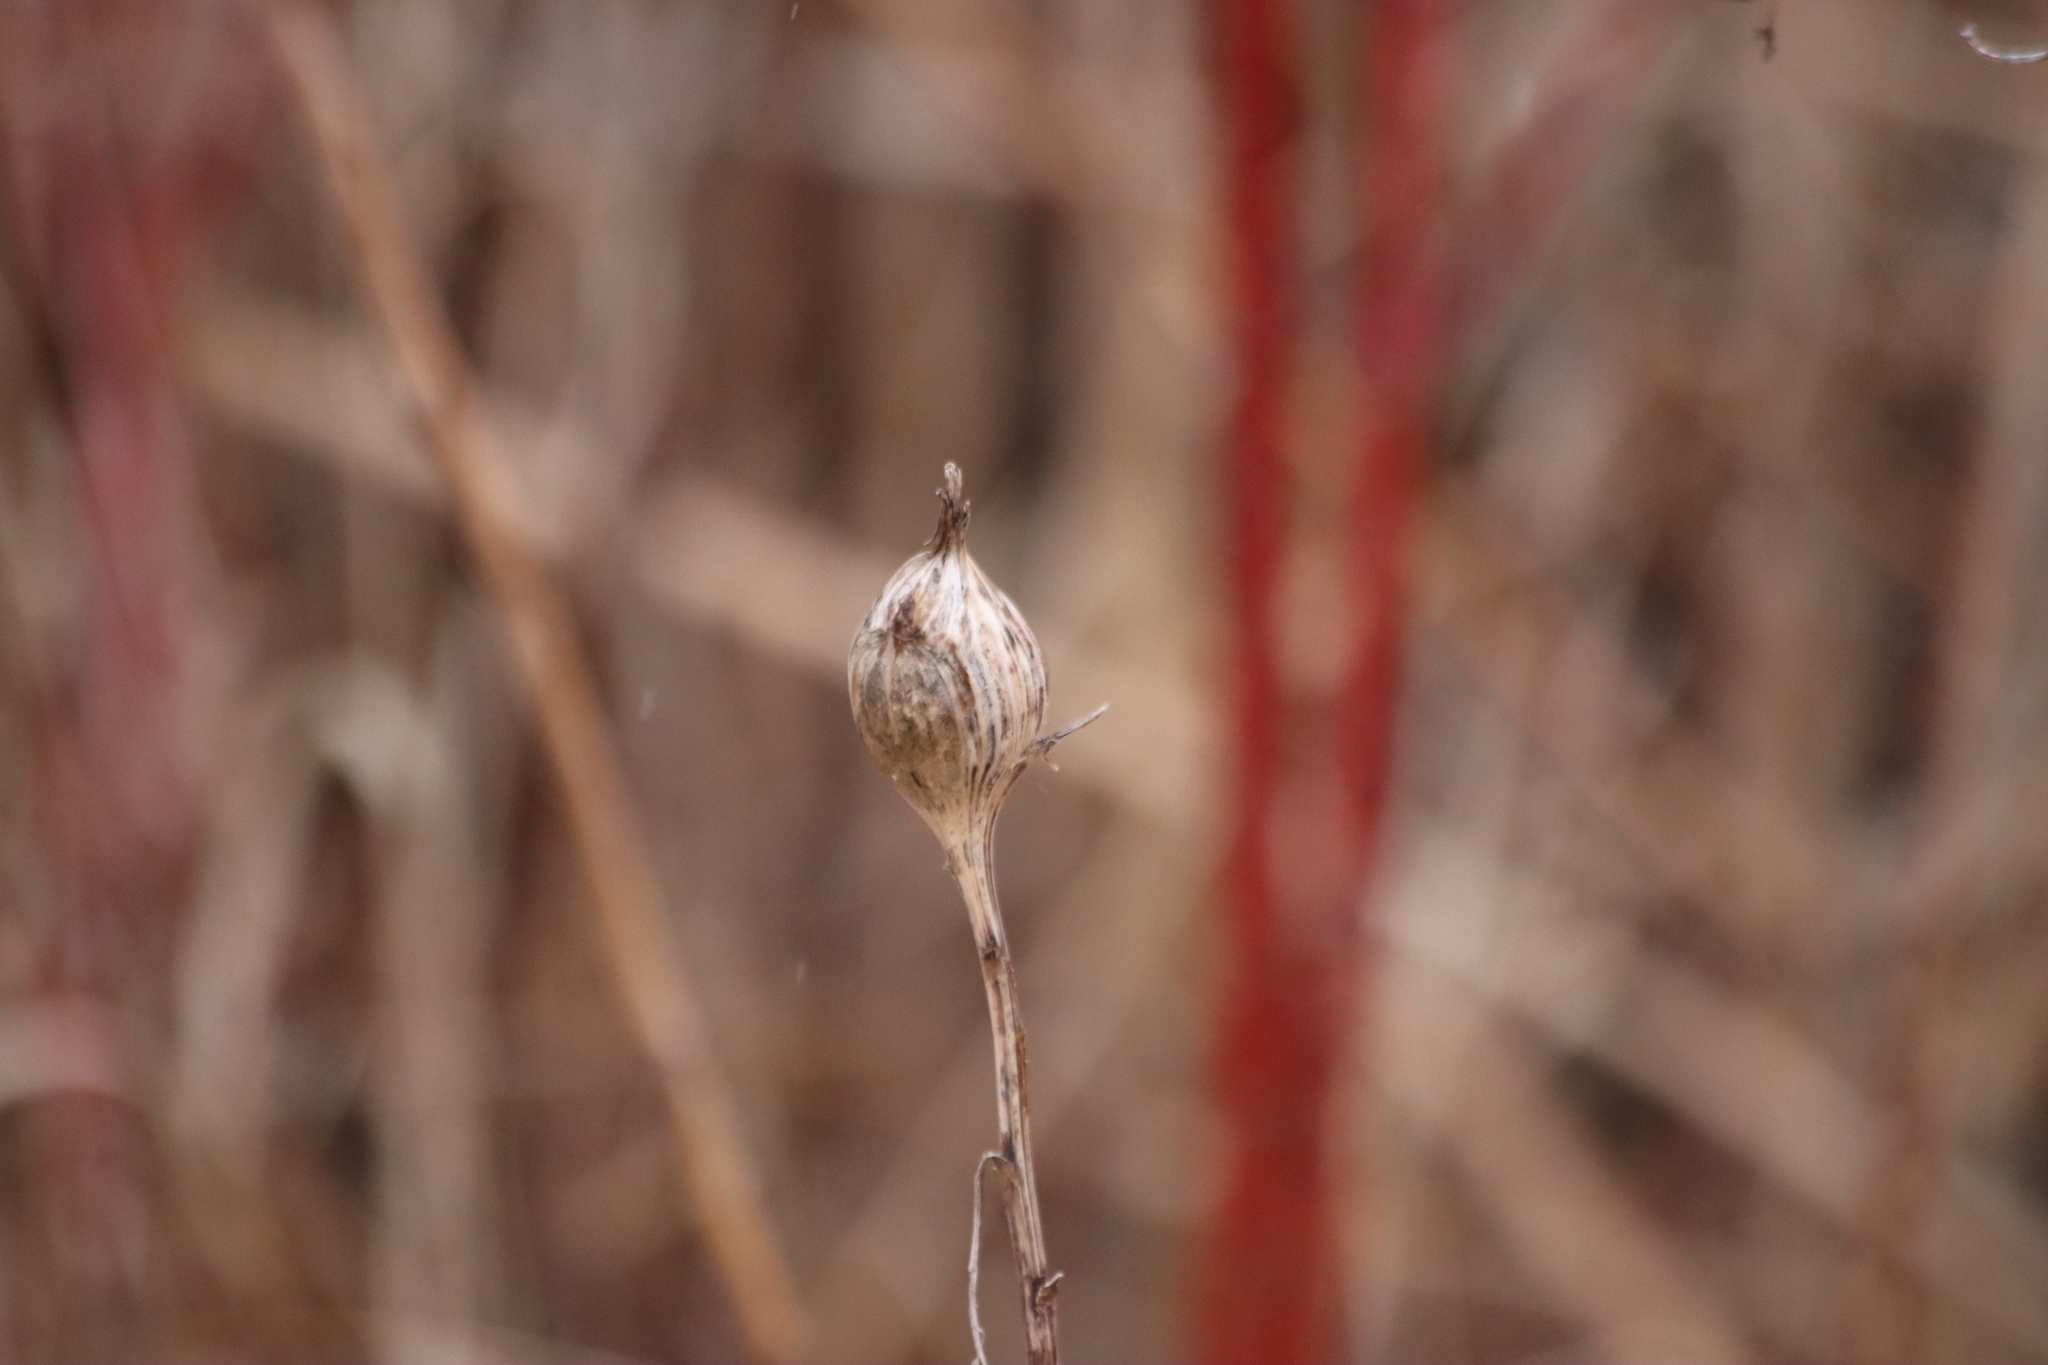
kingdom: Animalia
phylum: Arthropoda
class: Insecta
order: Diptera
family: Tephritidae
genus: Eurosta
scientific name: Eurosta solidaginis
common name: Goldenrod gall fly
